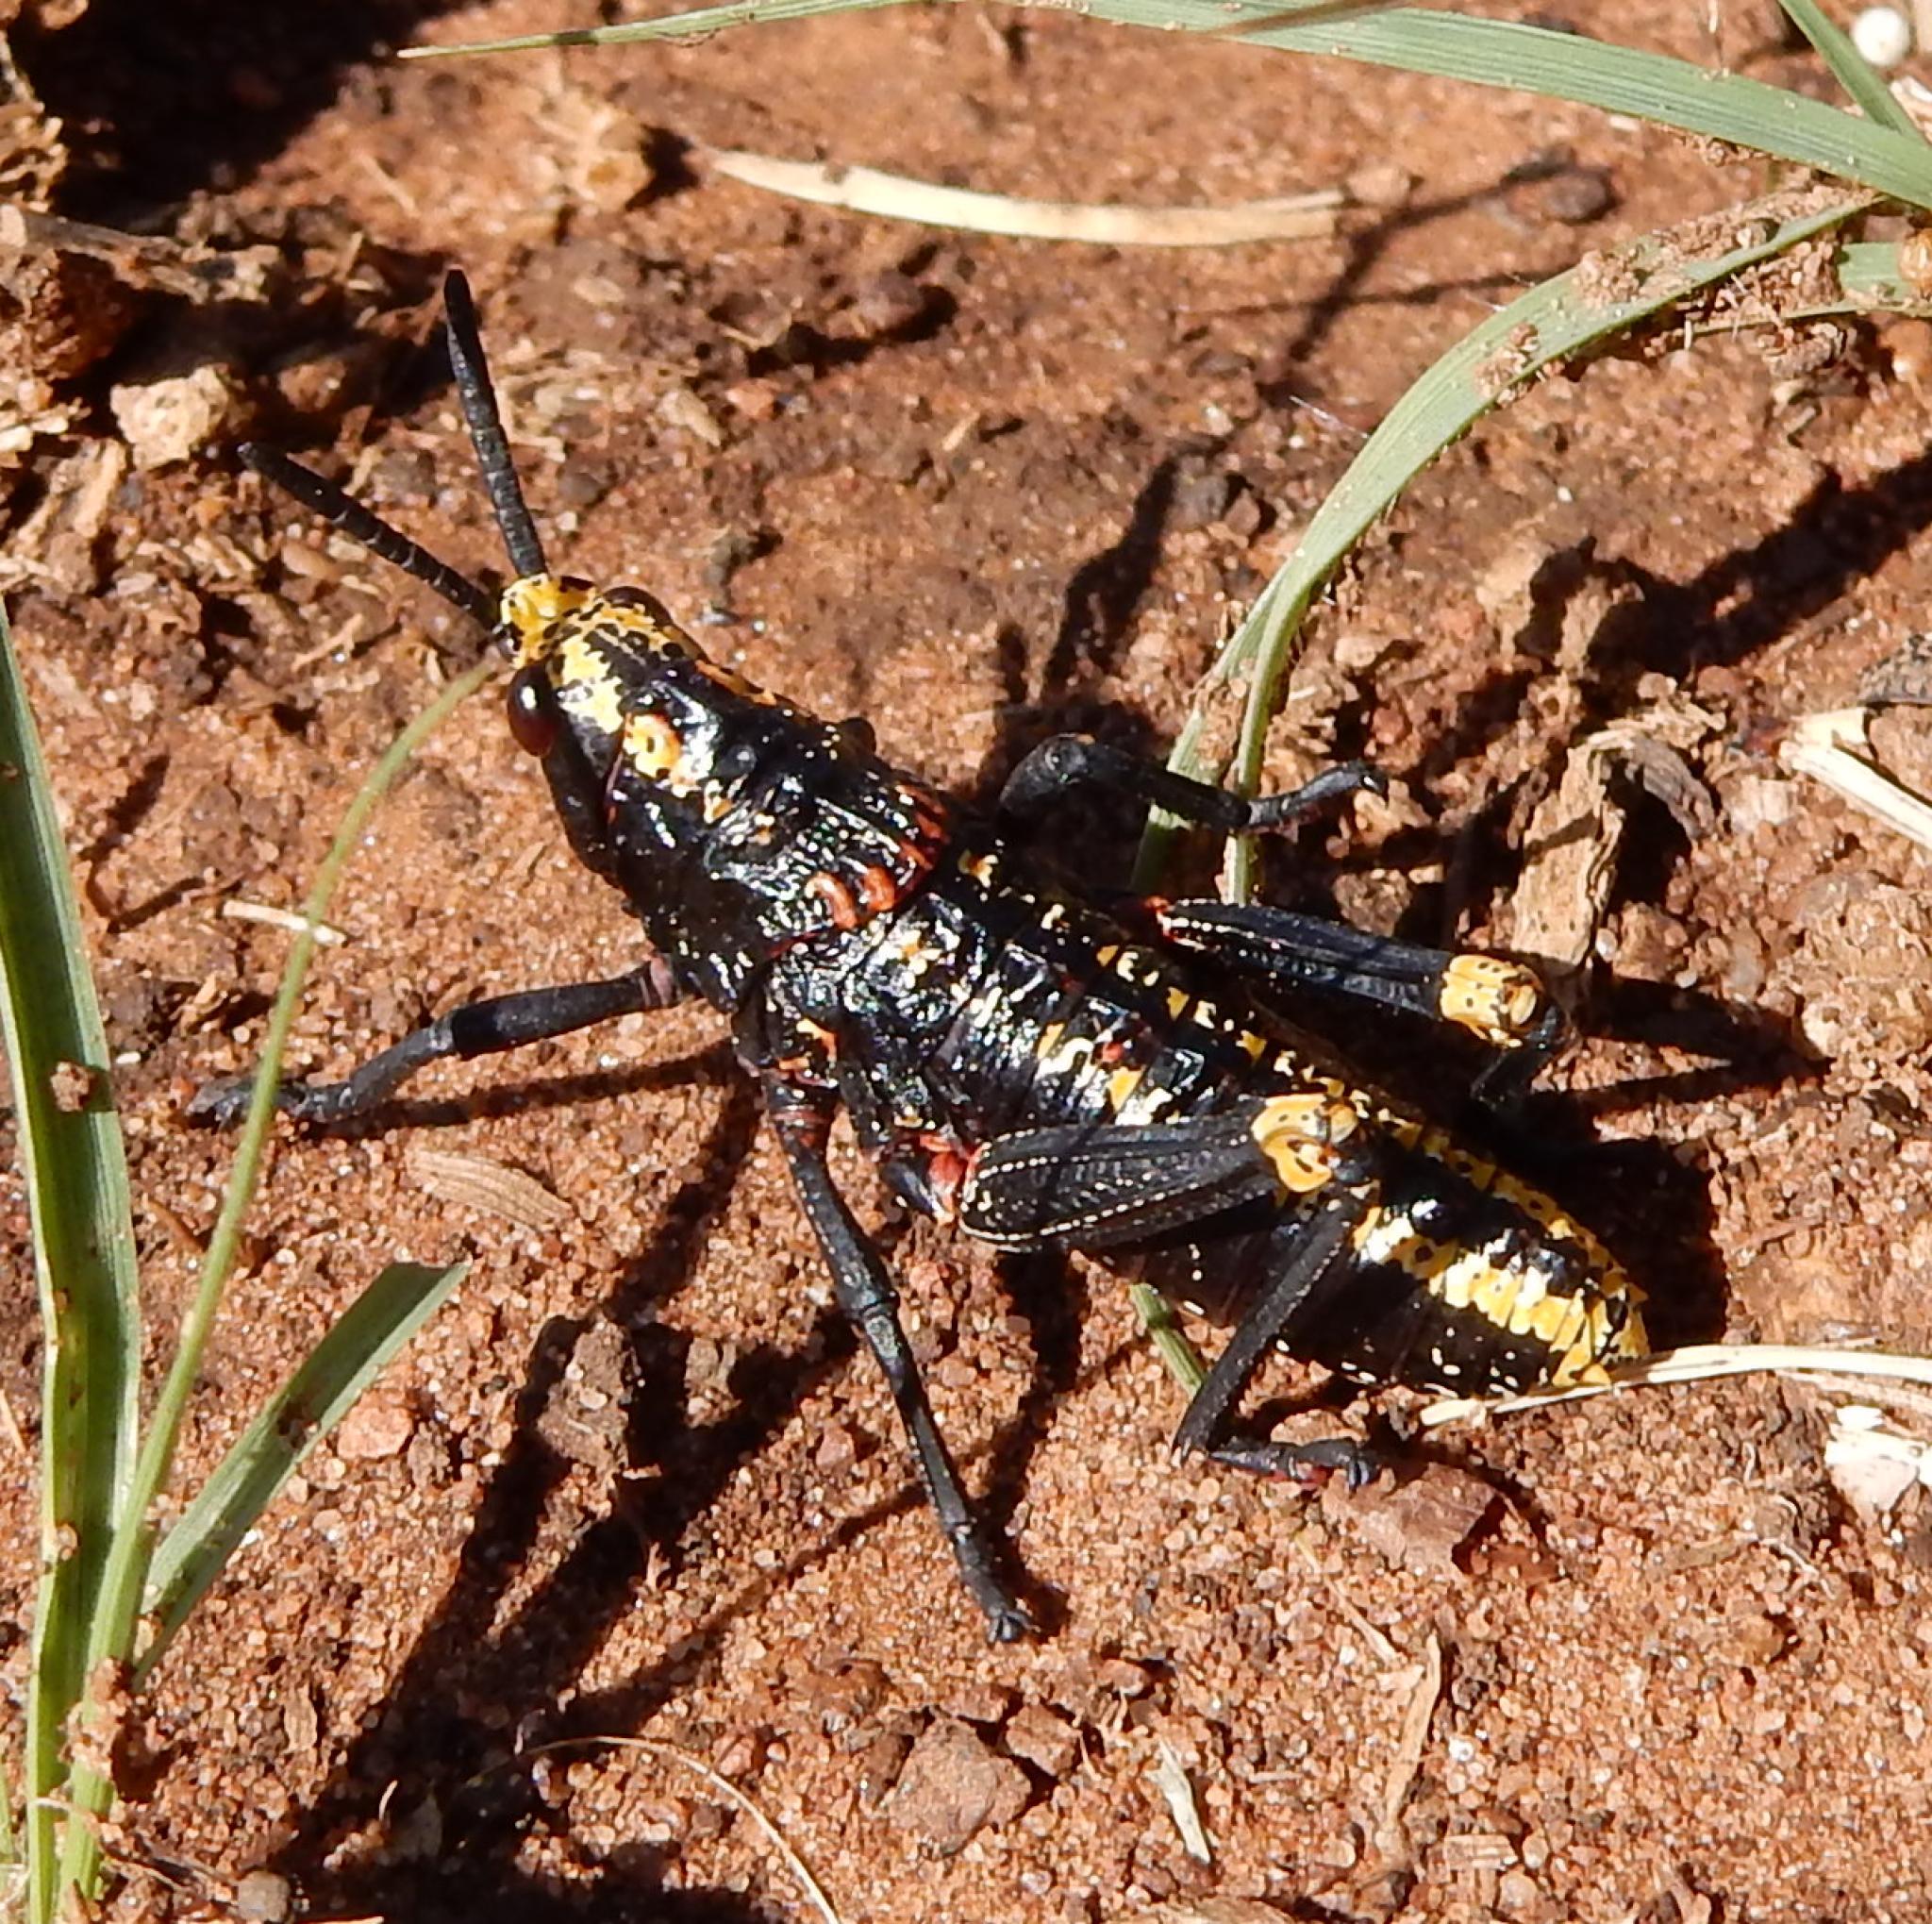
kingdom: Animalia
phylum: Arthropoda
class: Insecta
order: Orthoptera
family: Pyrgomorphidae
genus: Dictyophorus
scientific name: Dictyophorus spumans
